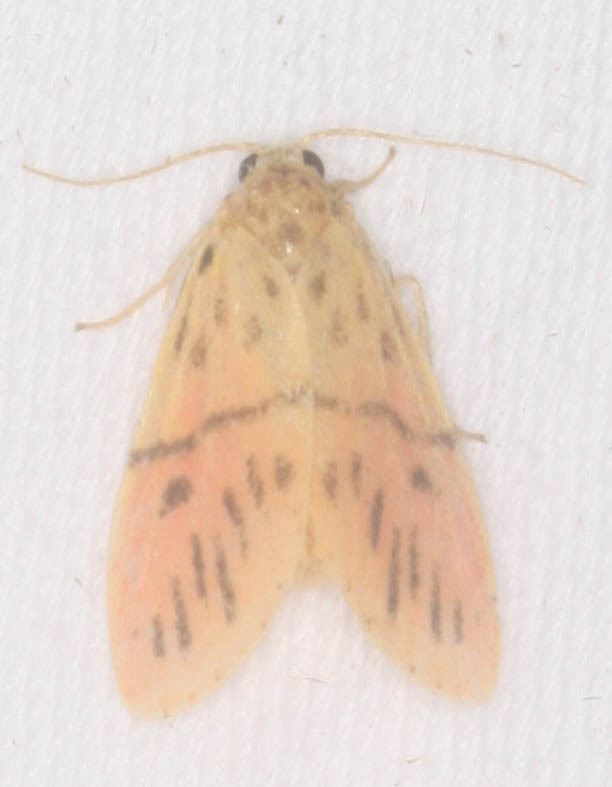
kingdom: Animalia
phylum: Arthropoda
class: Insecta
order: Lepidoptera
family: Erebidae
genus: Miltochrista
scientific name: Miltochrista acteola
